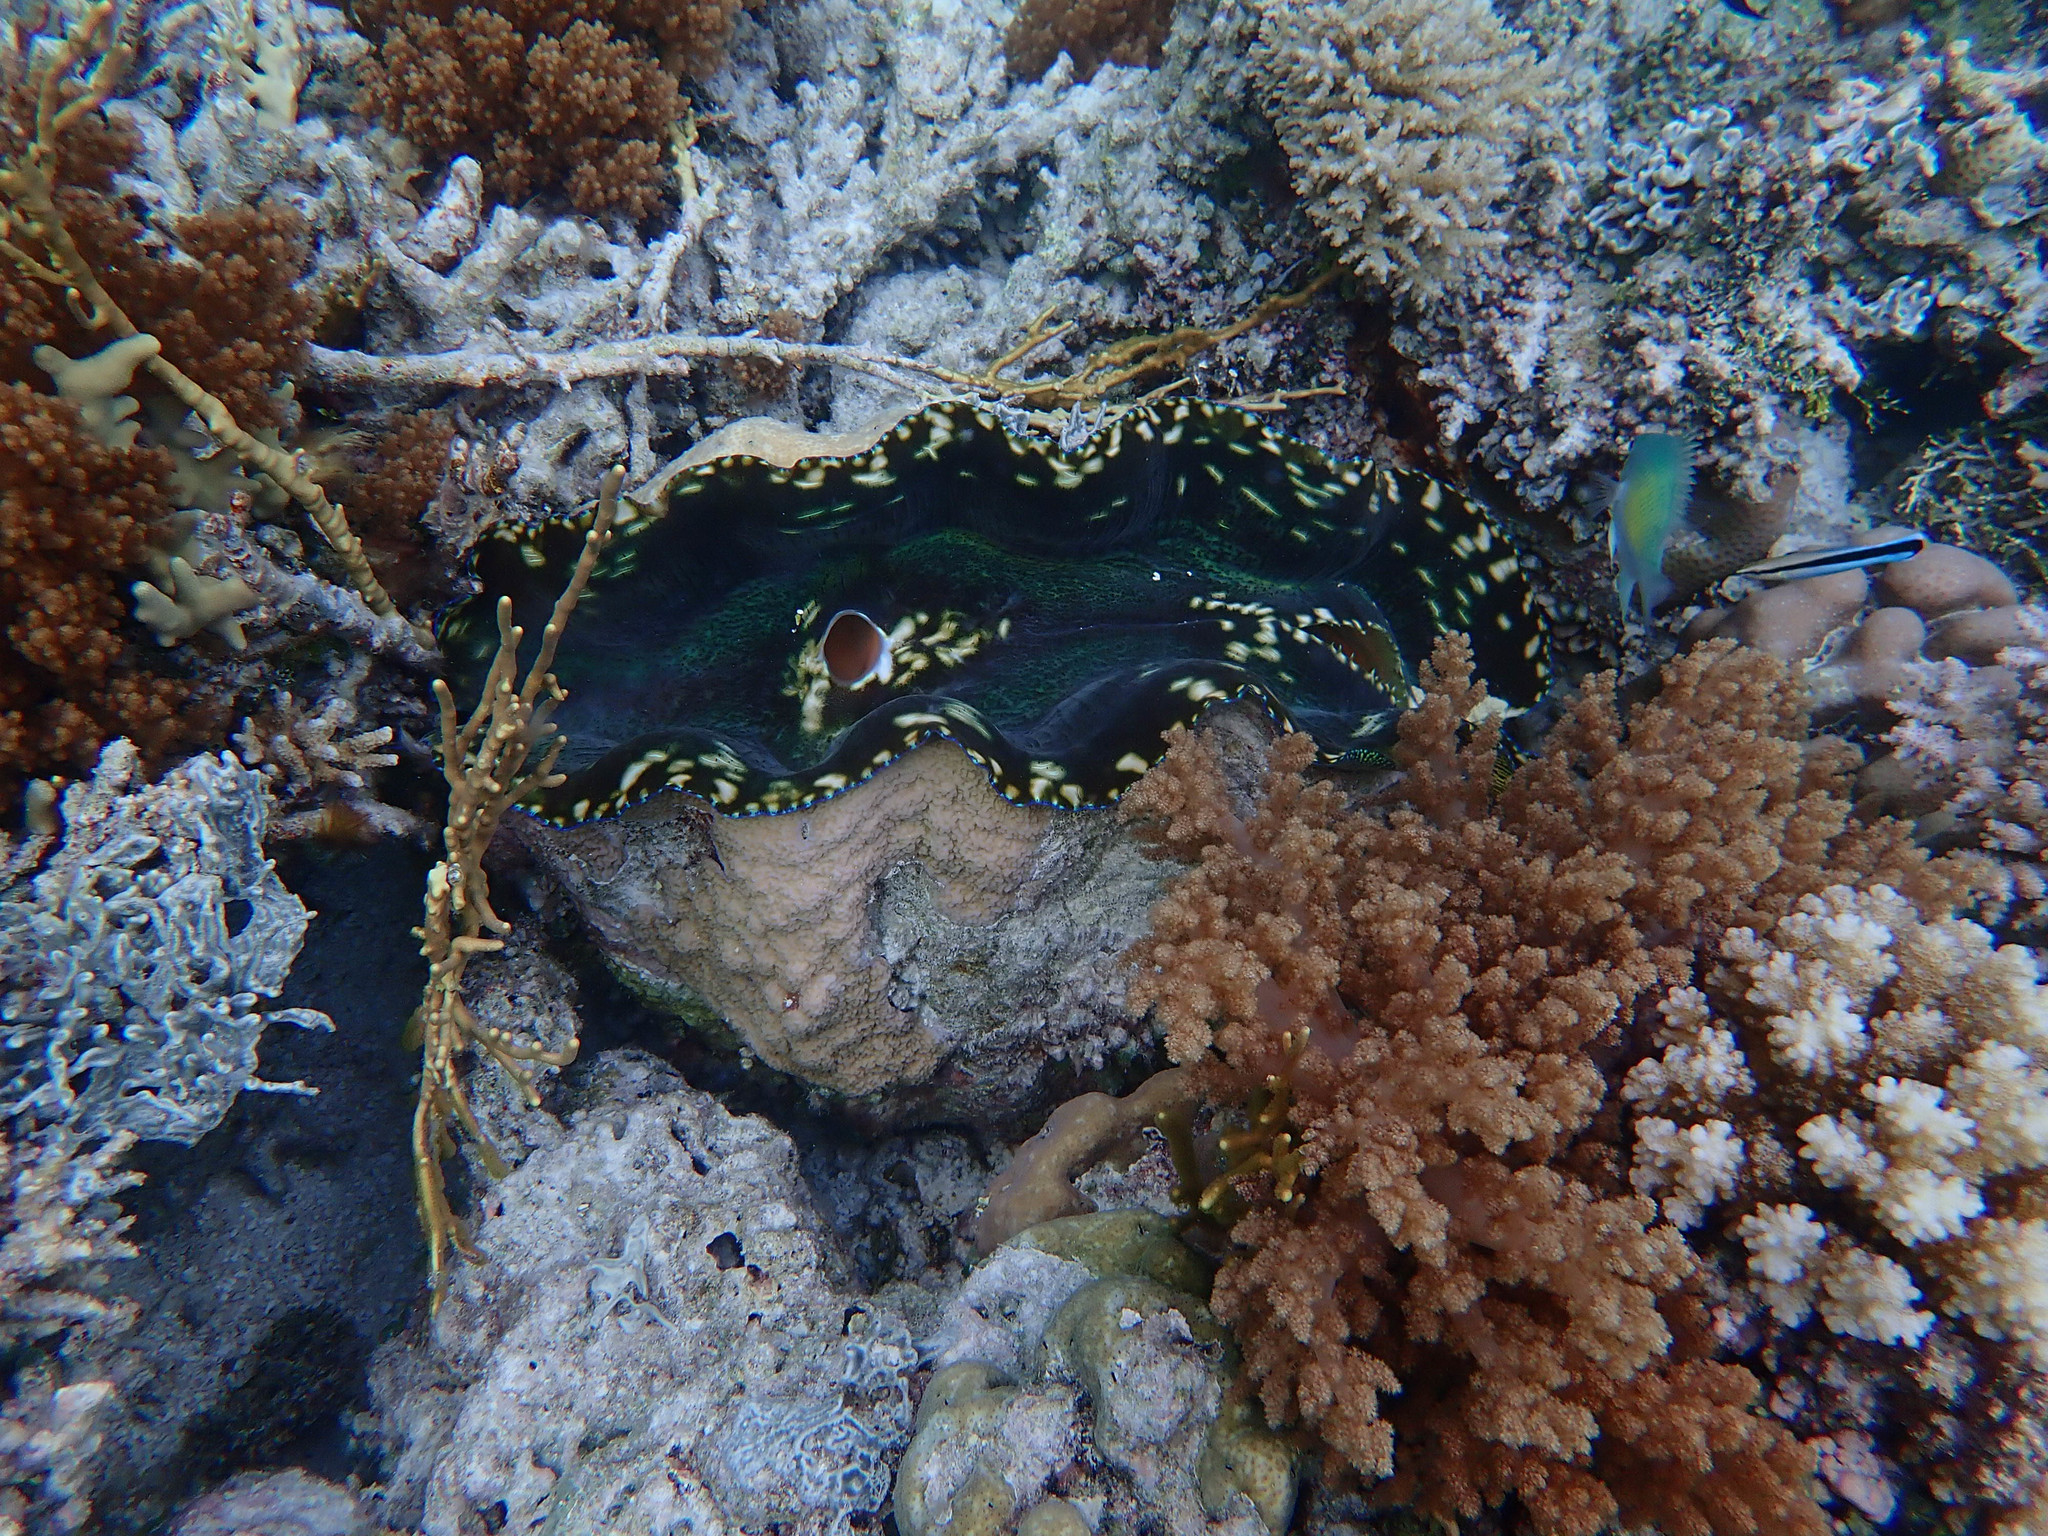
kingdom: Animalia
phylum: Chordata
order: Perciformes
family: Labridae
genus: Labroides
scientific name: Labroides dimidiatus
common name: Blue diesel wrasse
